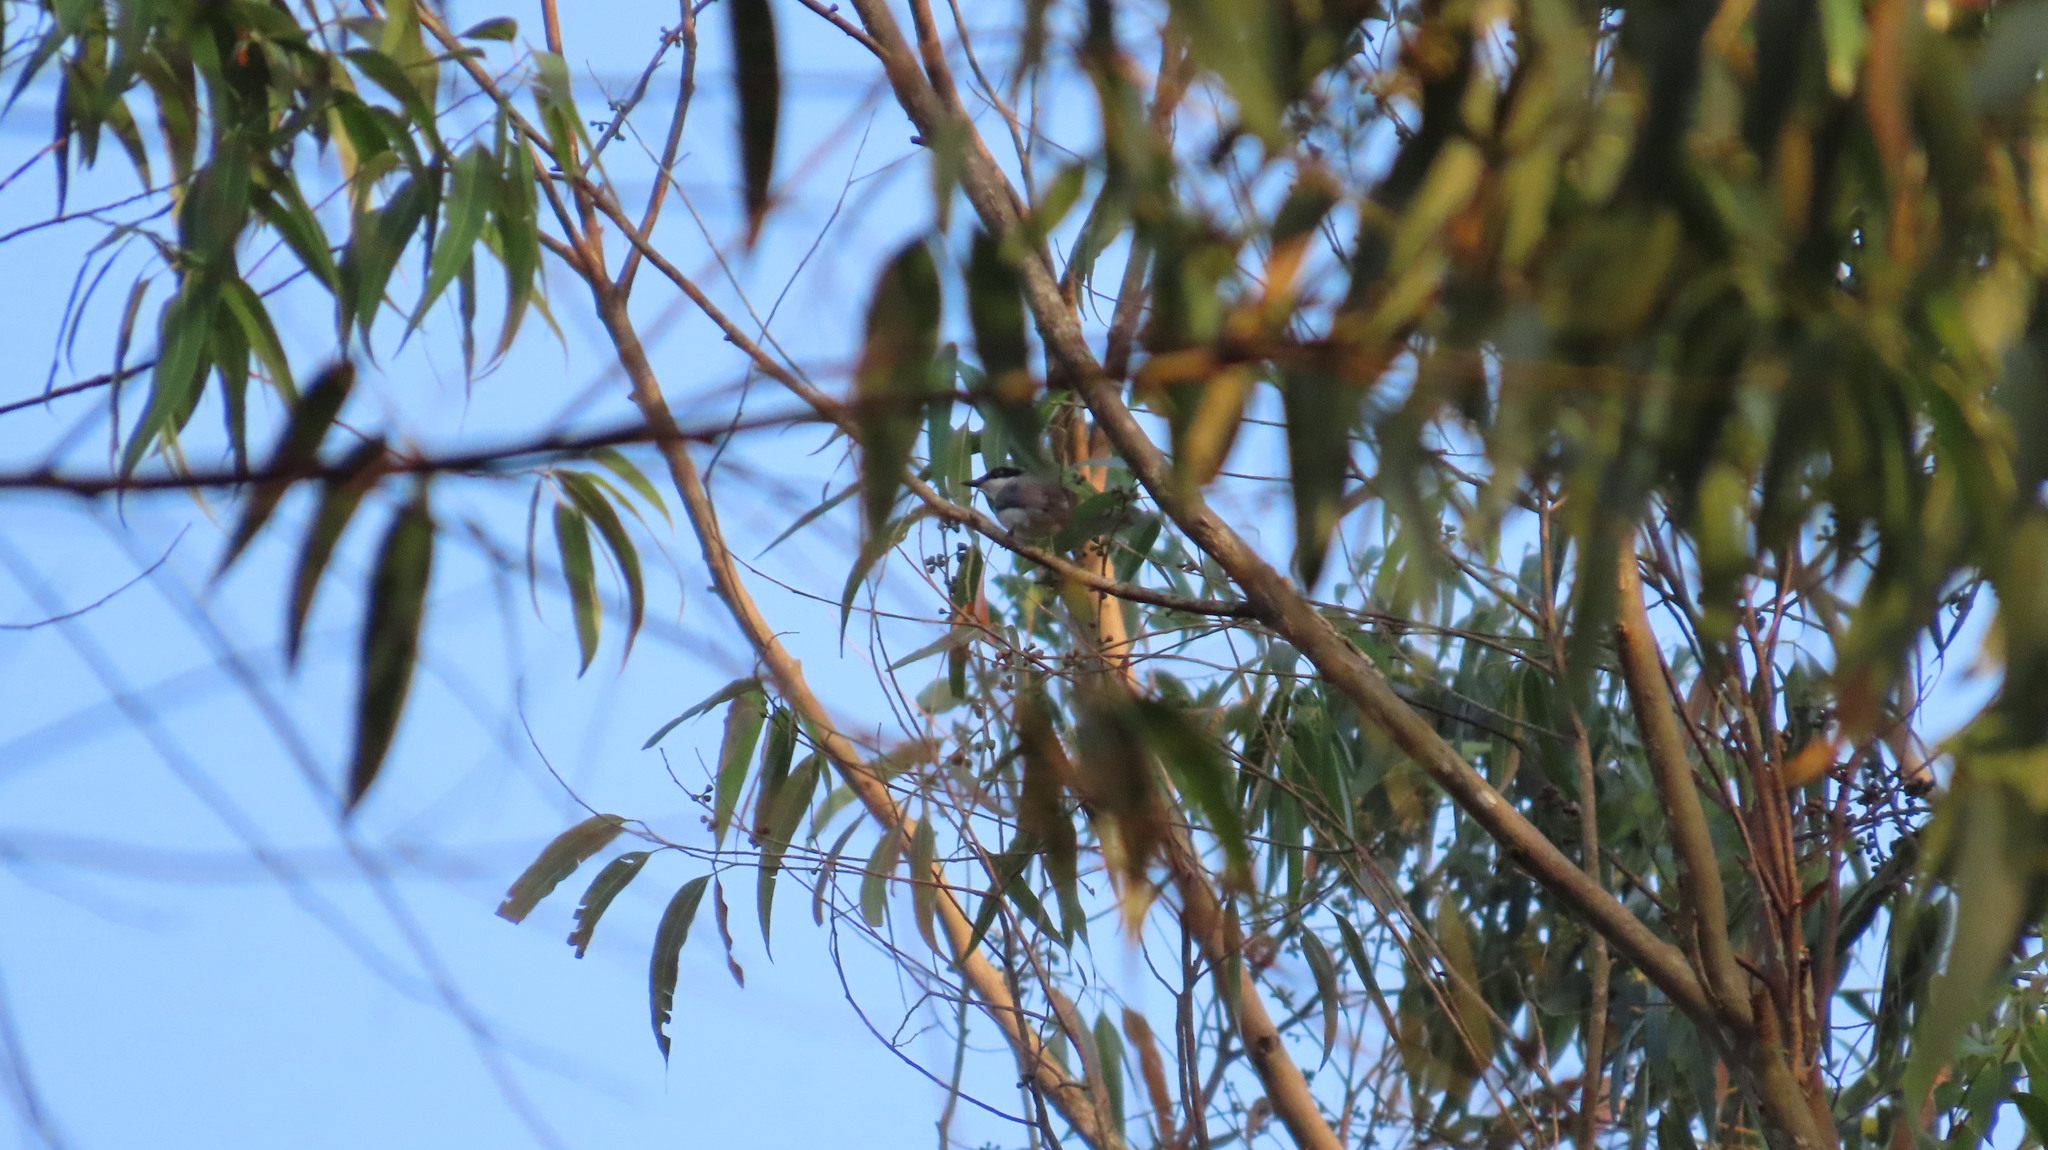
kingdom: Animalia
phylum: Chordata
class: Aves
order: Passeriformes
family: Tephrodornithidae
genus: Tephrodornis
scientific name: Tephrodornis sylvicola
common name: Malabar woodshrike
